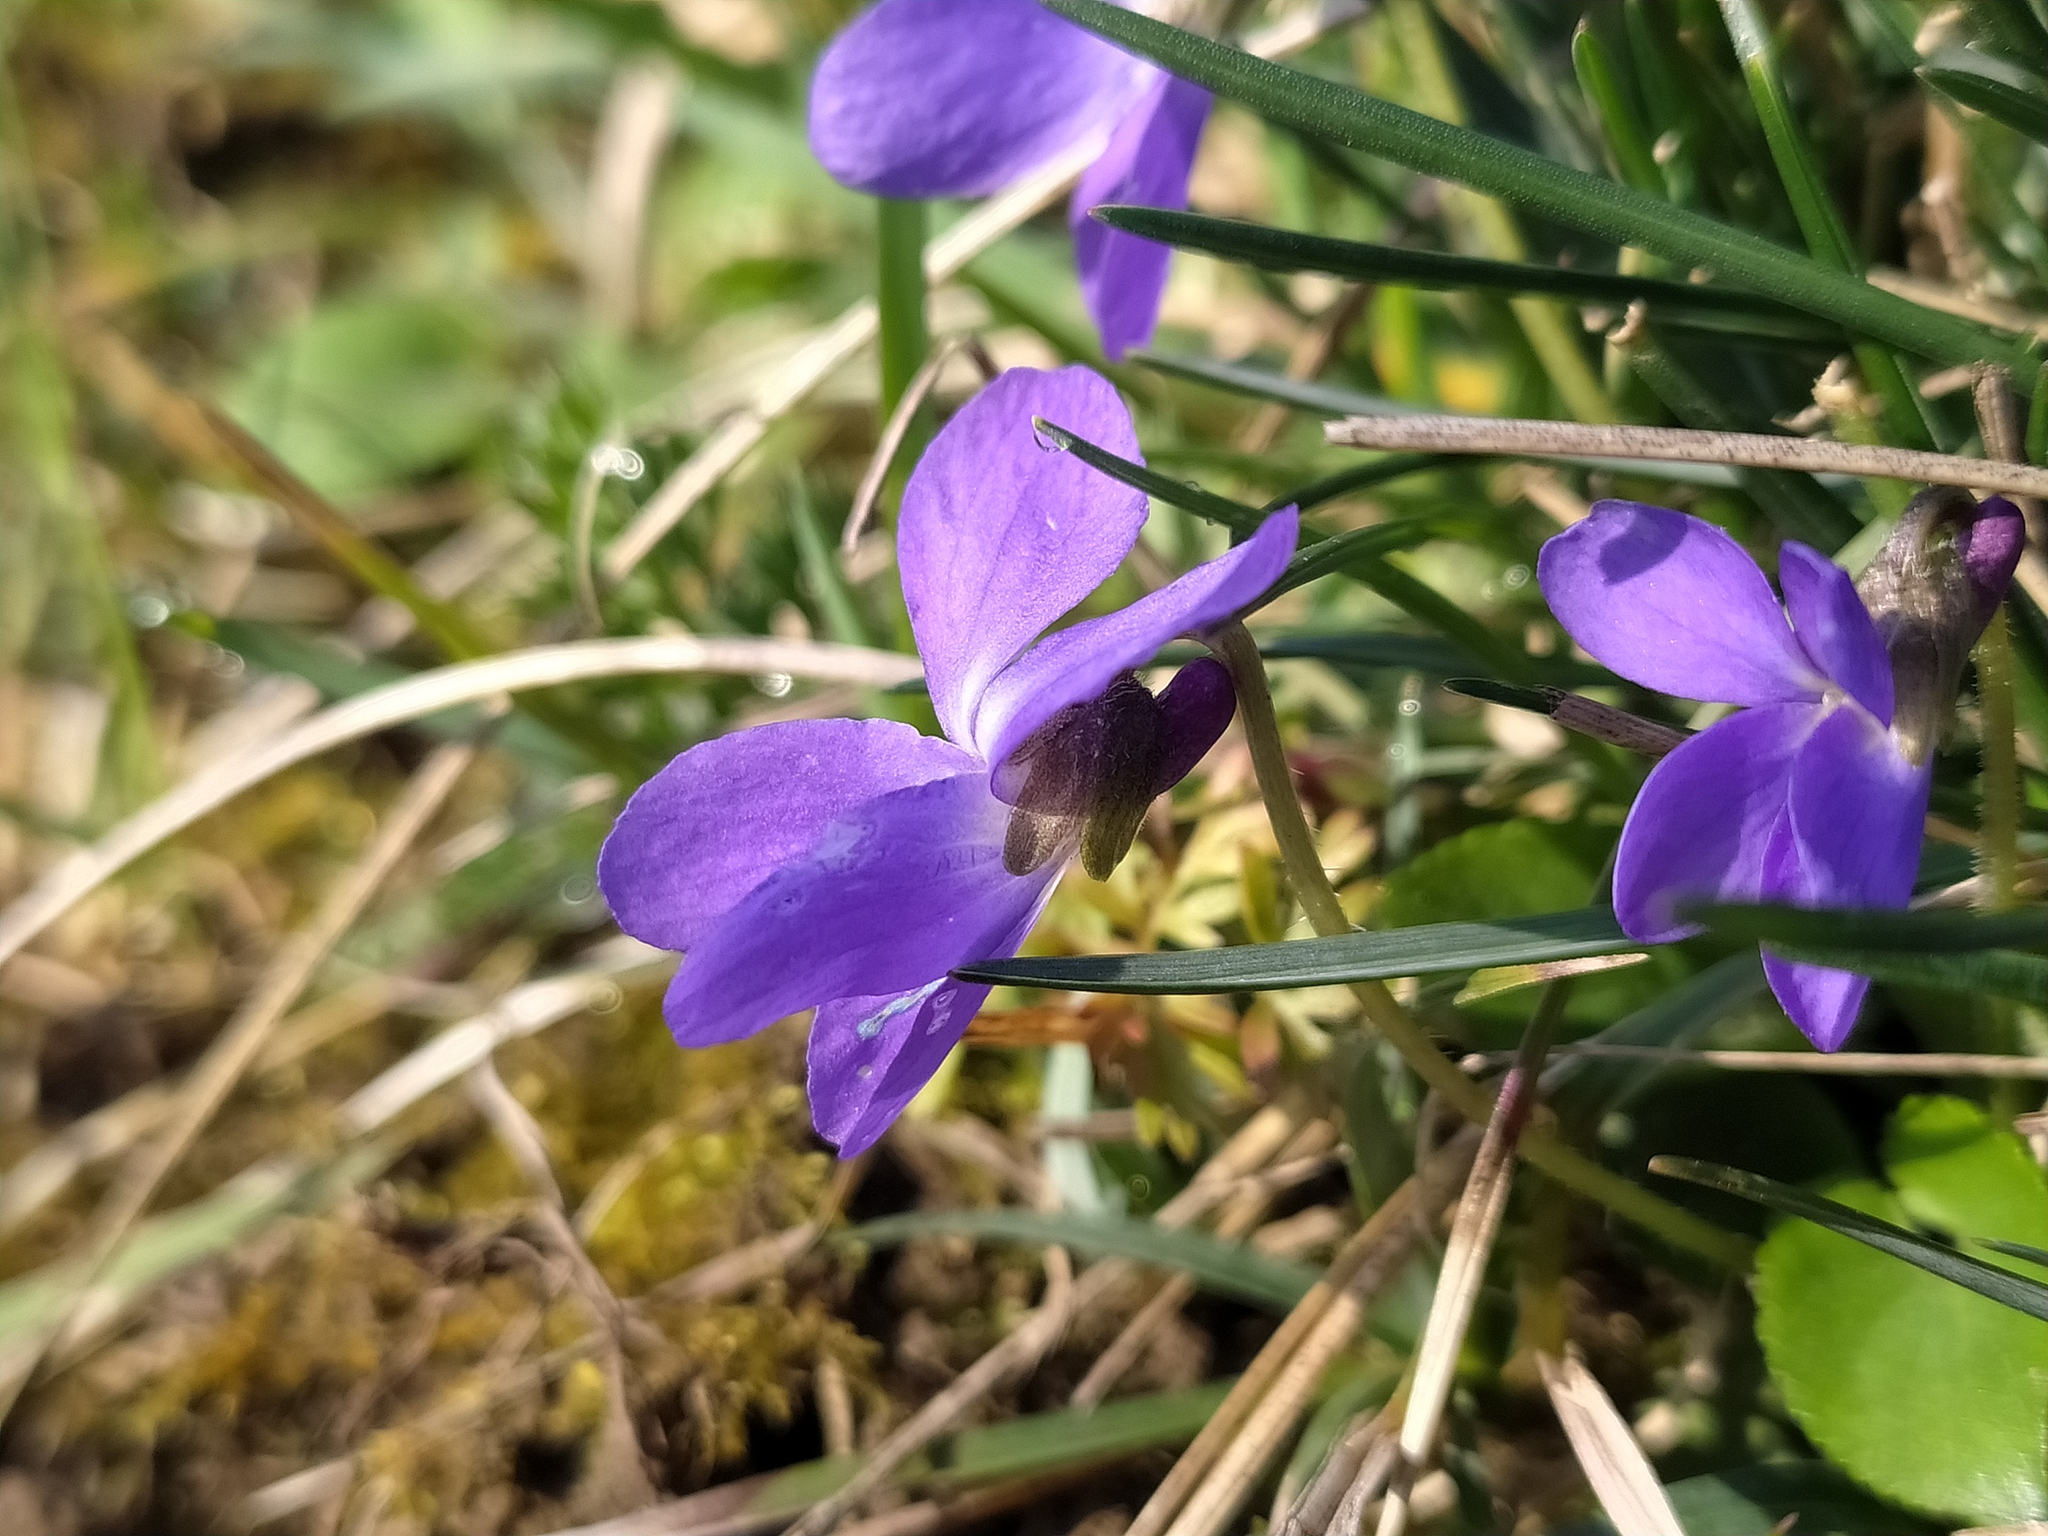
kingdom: Plantae
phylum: Tracheophyta
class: Magnoliopsida
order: Malpighiales
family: Violaceae
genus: Viola
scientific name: Viola hirta
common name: Hairy violet
